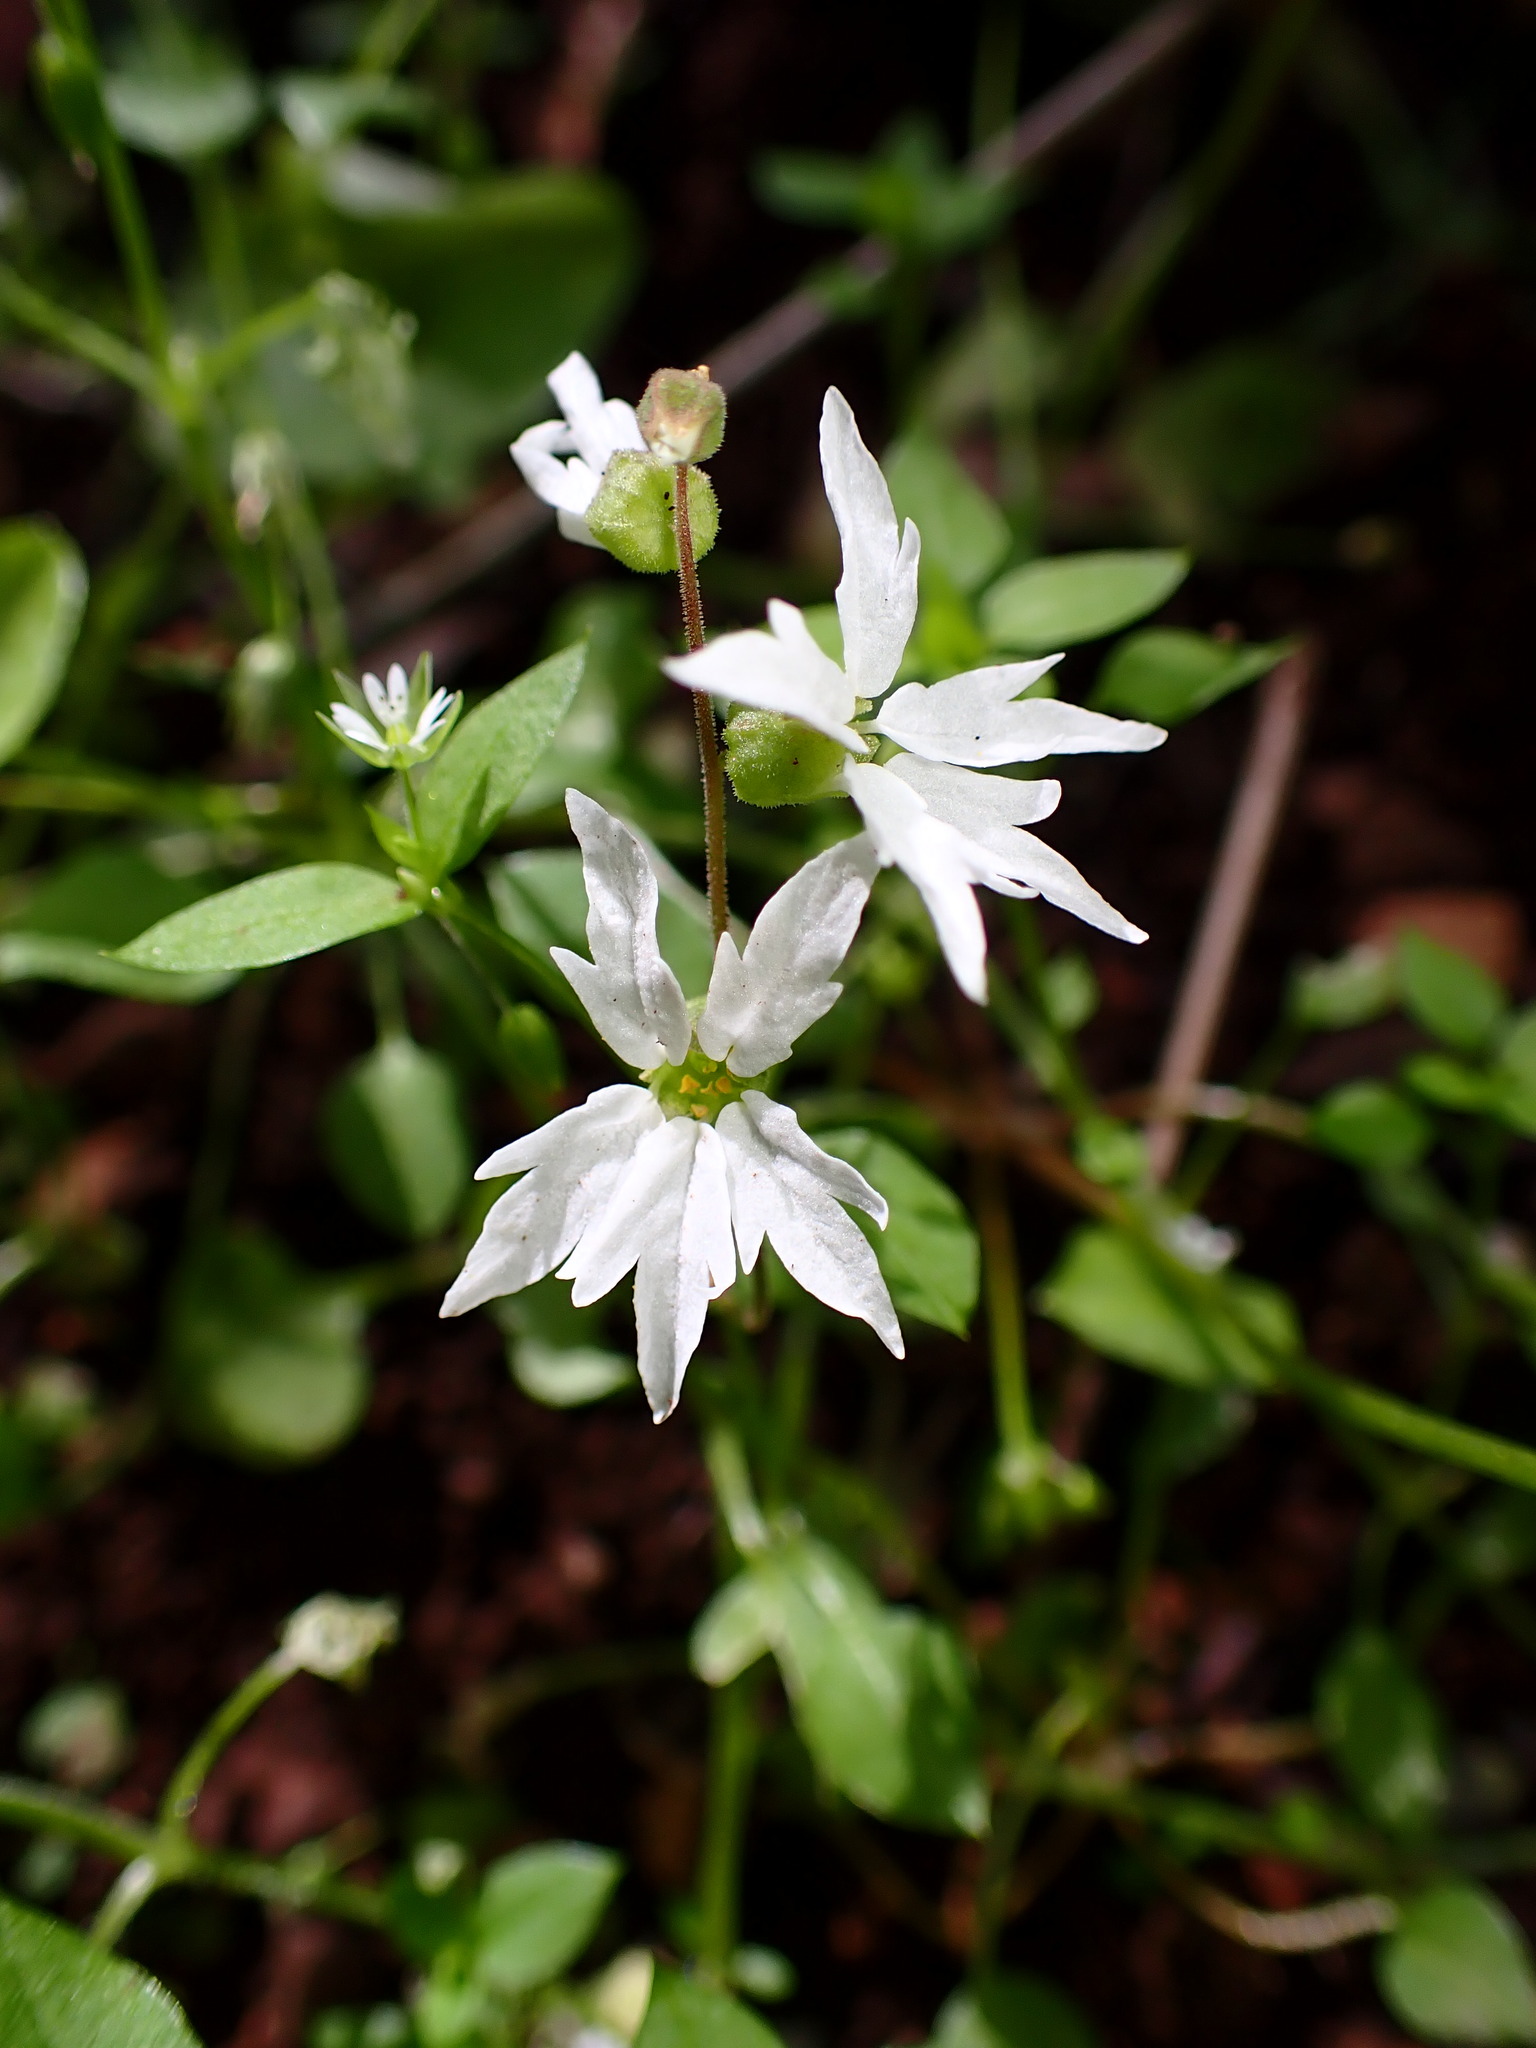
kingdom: Plantae
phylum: Tracheophyta
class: Magnoliopsida
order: Saxifragales
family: Saxifragaceae
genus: Lithophragma
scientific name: Lithophragma heterophyllum
